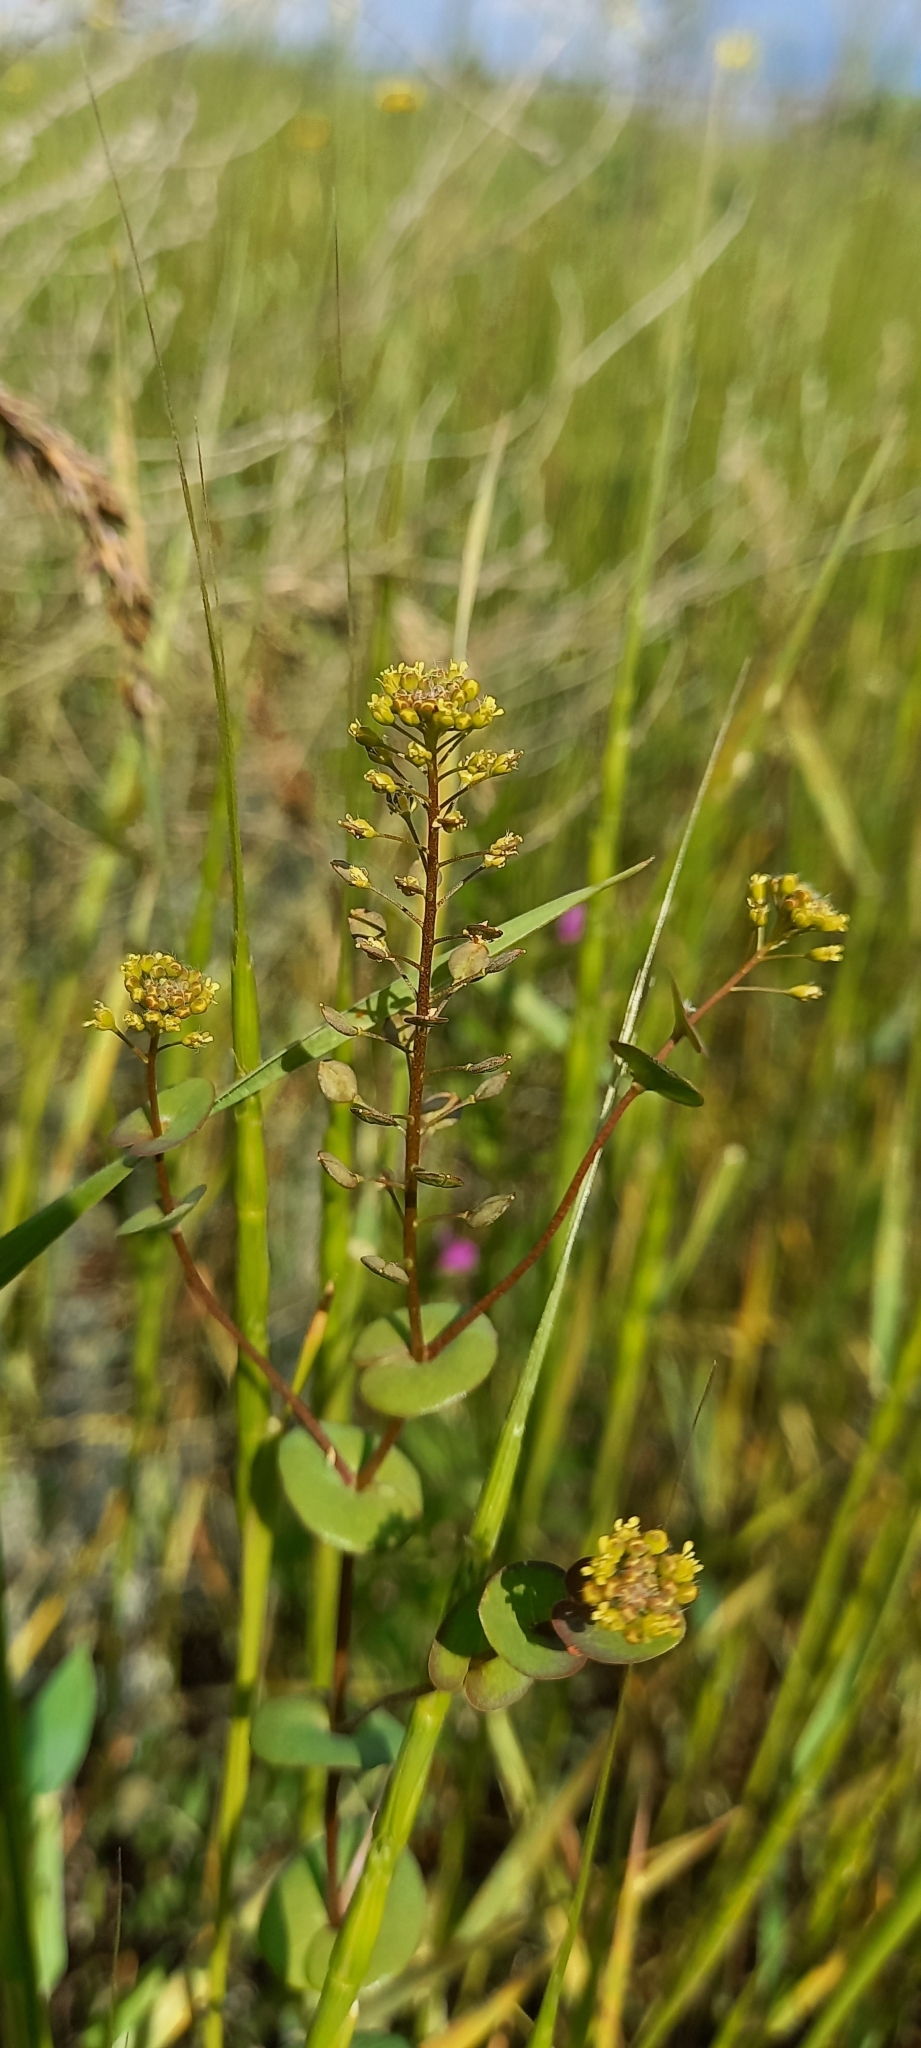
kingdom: Plantae
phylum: Tracheophyta
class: Magnoliopsida
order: Brassicales
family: Brassicaceae
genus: Lepidium
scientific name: Lepidium perfoliatum
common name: Perfoliate pepperwort
